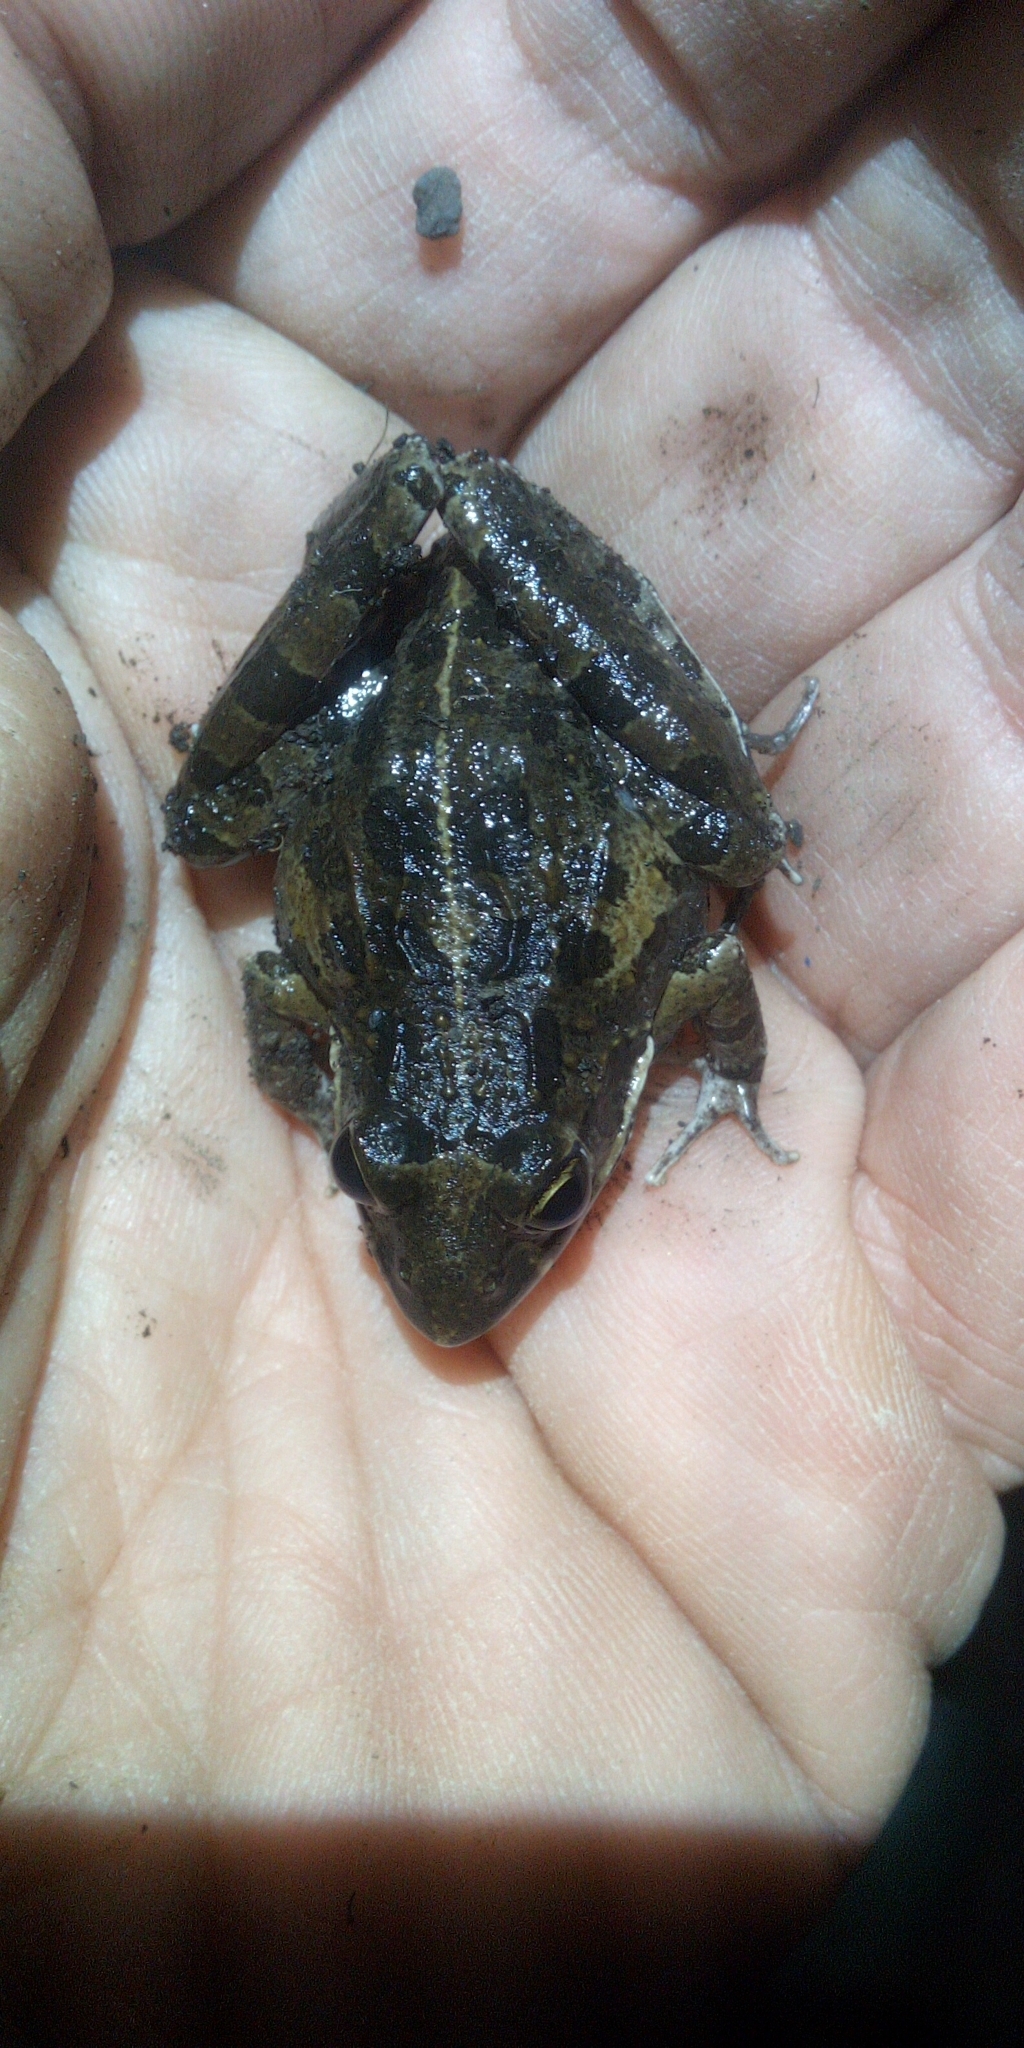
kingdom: Animalia
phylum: Chordata
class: Amphibia
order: Anura
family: Pyxicephalidae
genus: Strongylopus
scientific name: Strongylopus grayii
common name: Gray's stream frog
